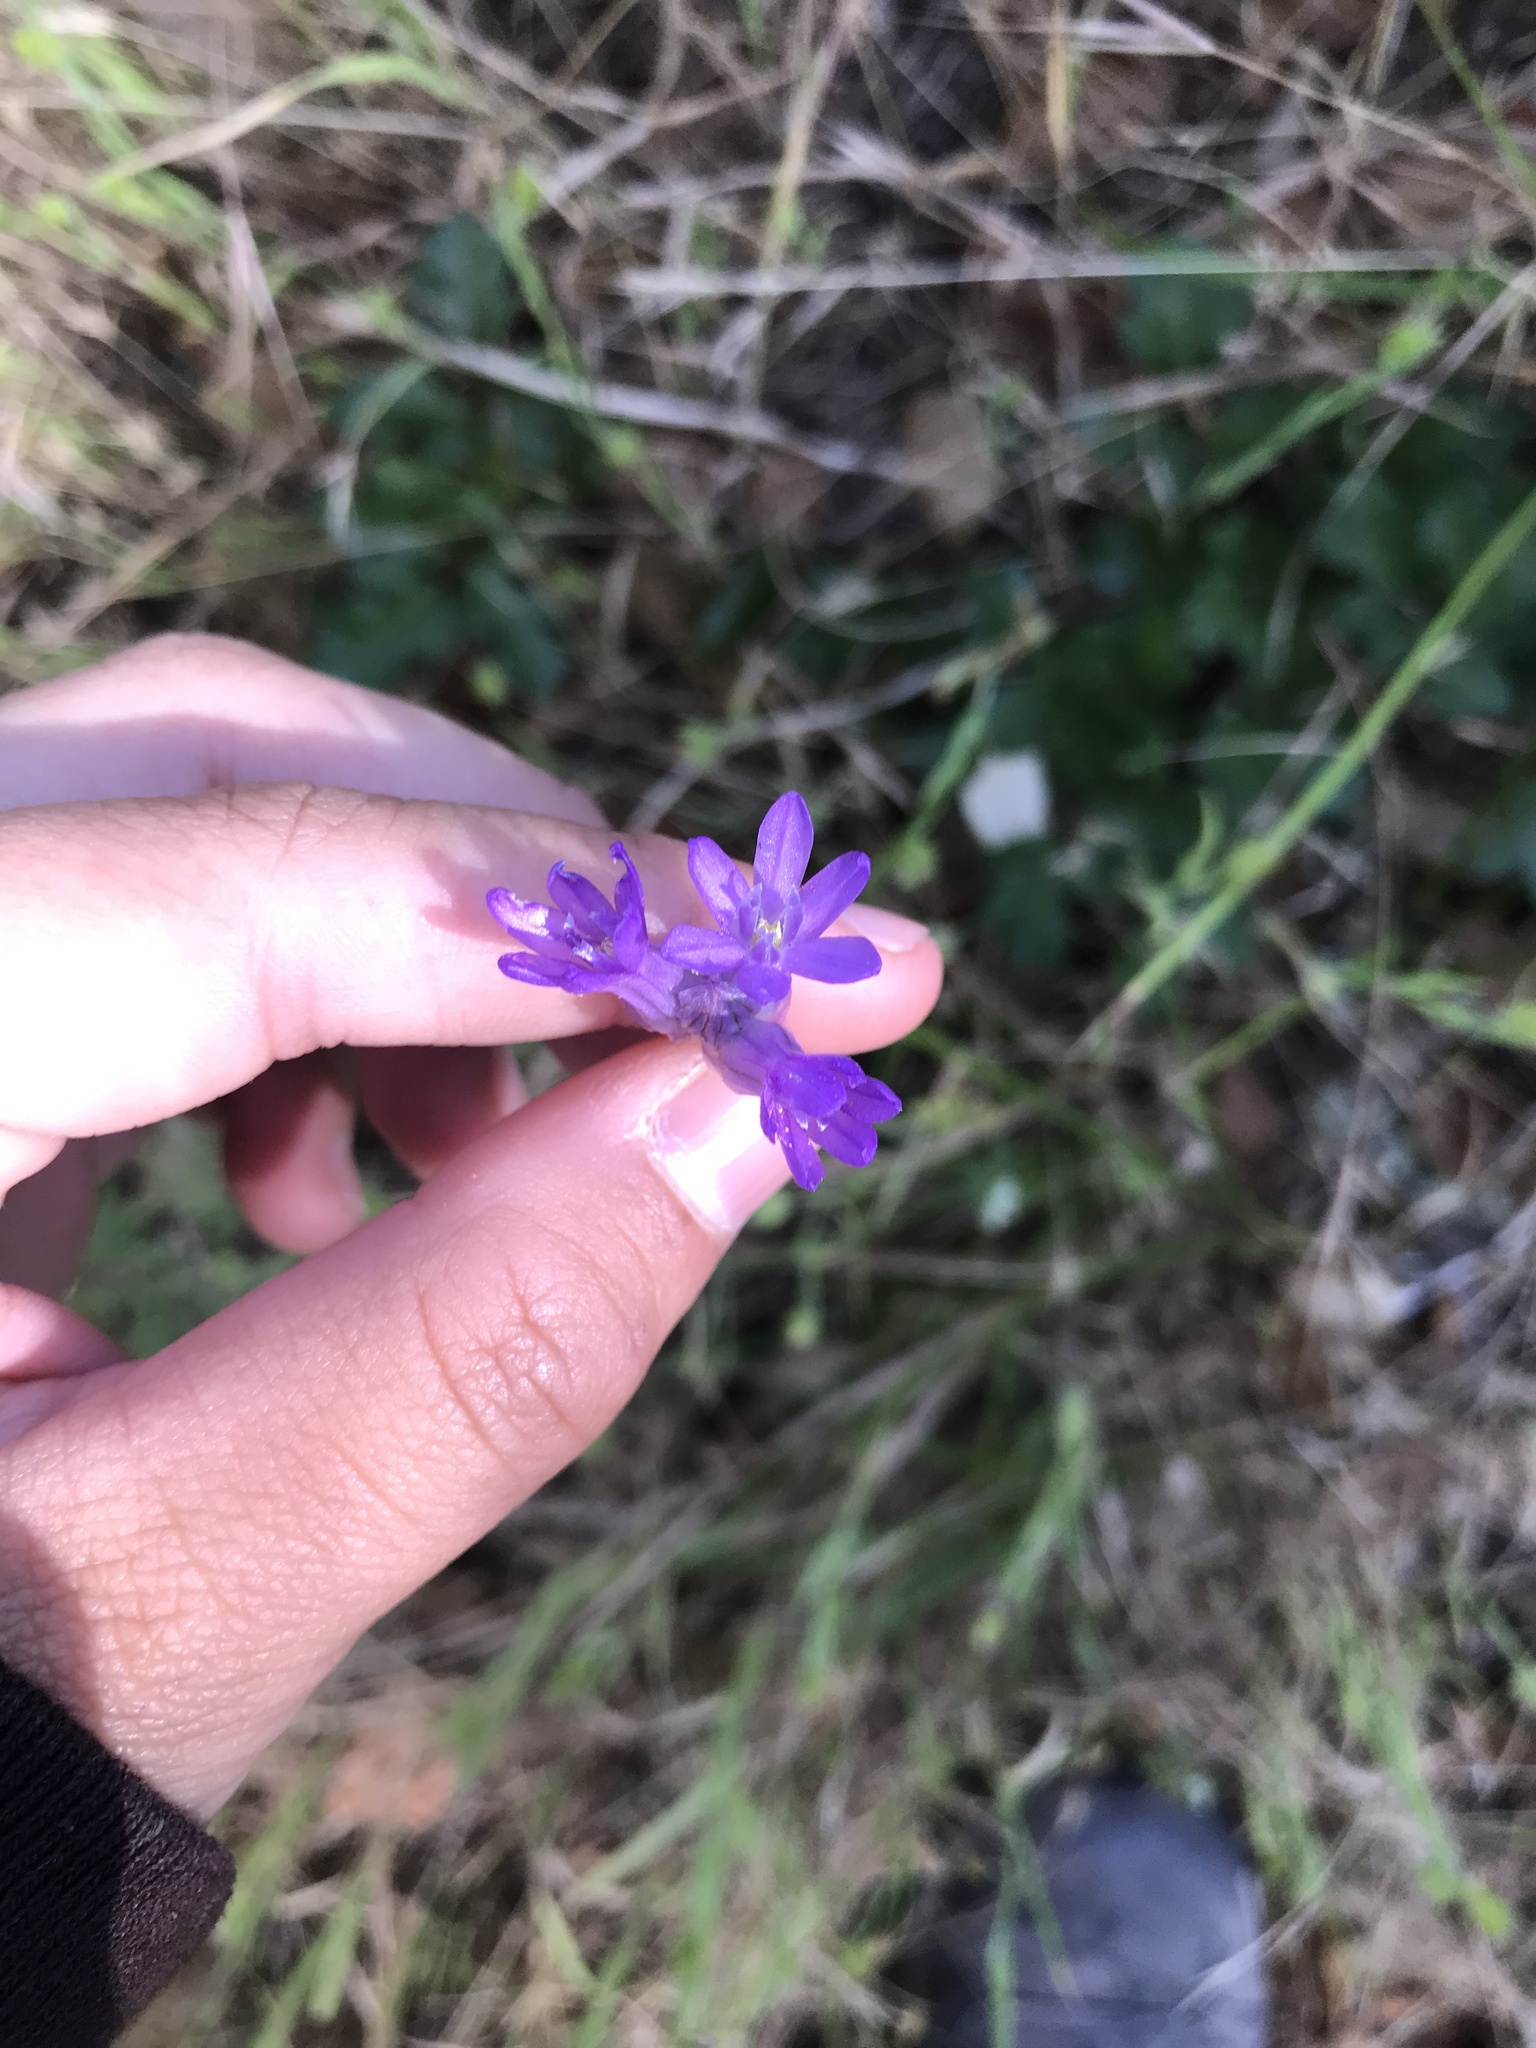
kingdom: Plantae
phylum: Tracheophyta
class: Liliopsida
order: Asparagales
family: Asparagaceae
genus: Dichelostemma
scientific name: Dichelostemma congestum
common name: Fork-tooth ookow
